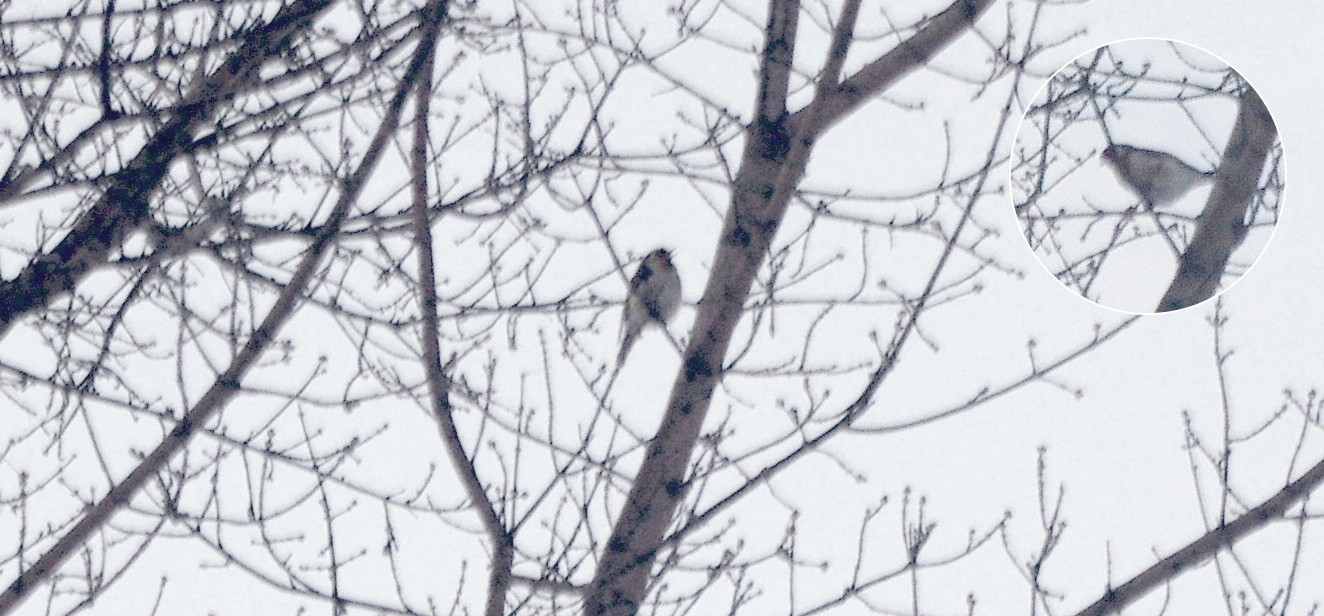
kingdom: Animalia
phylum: Chordata
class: Aves
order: Passeriformes
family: Fringillidae
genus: Carduelis
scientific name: Carduelis carduelis
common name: European goldfinch
